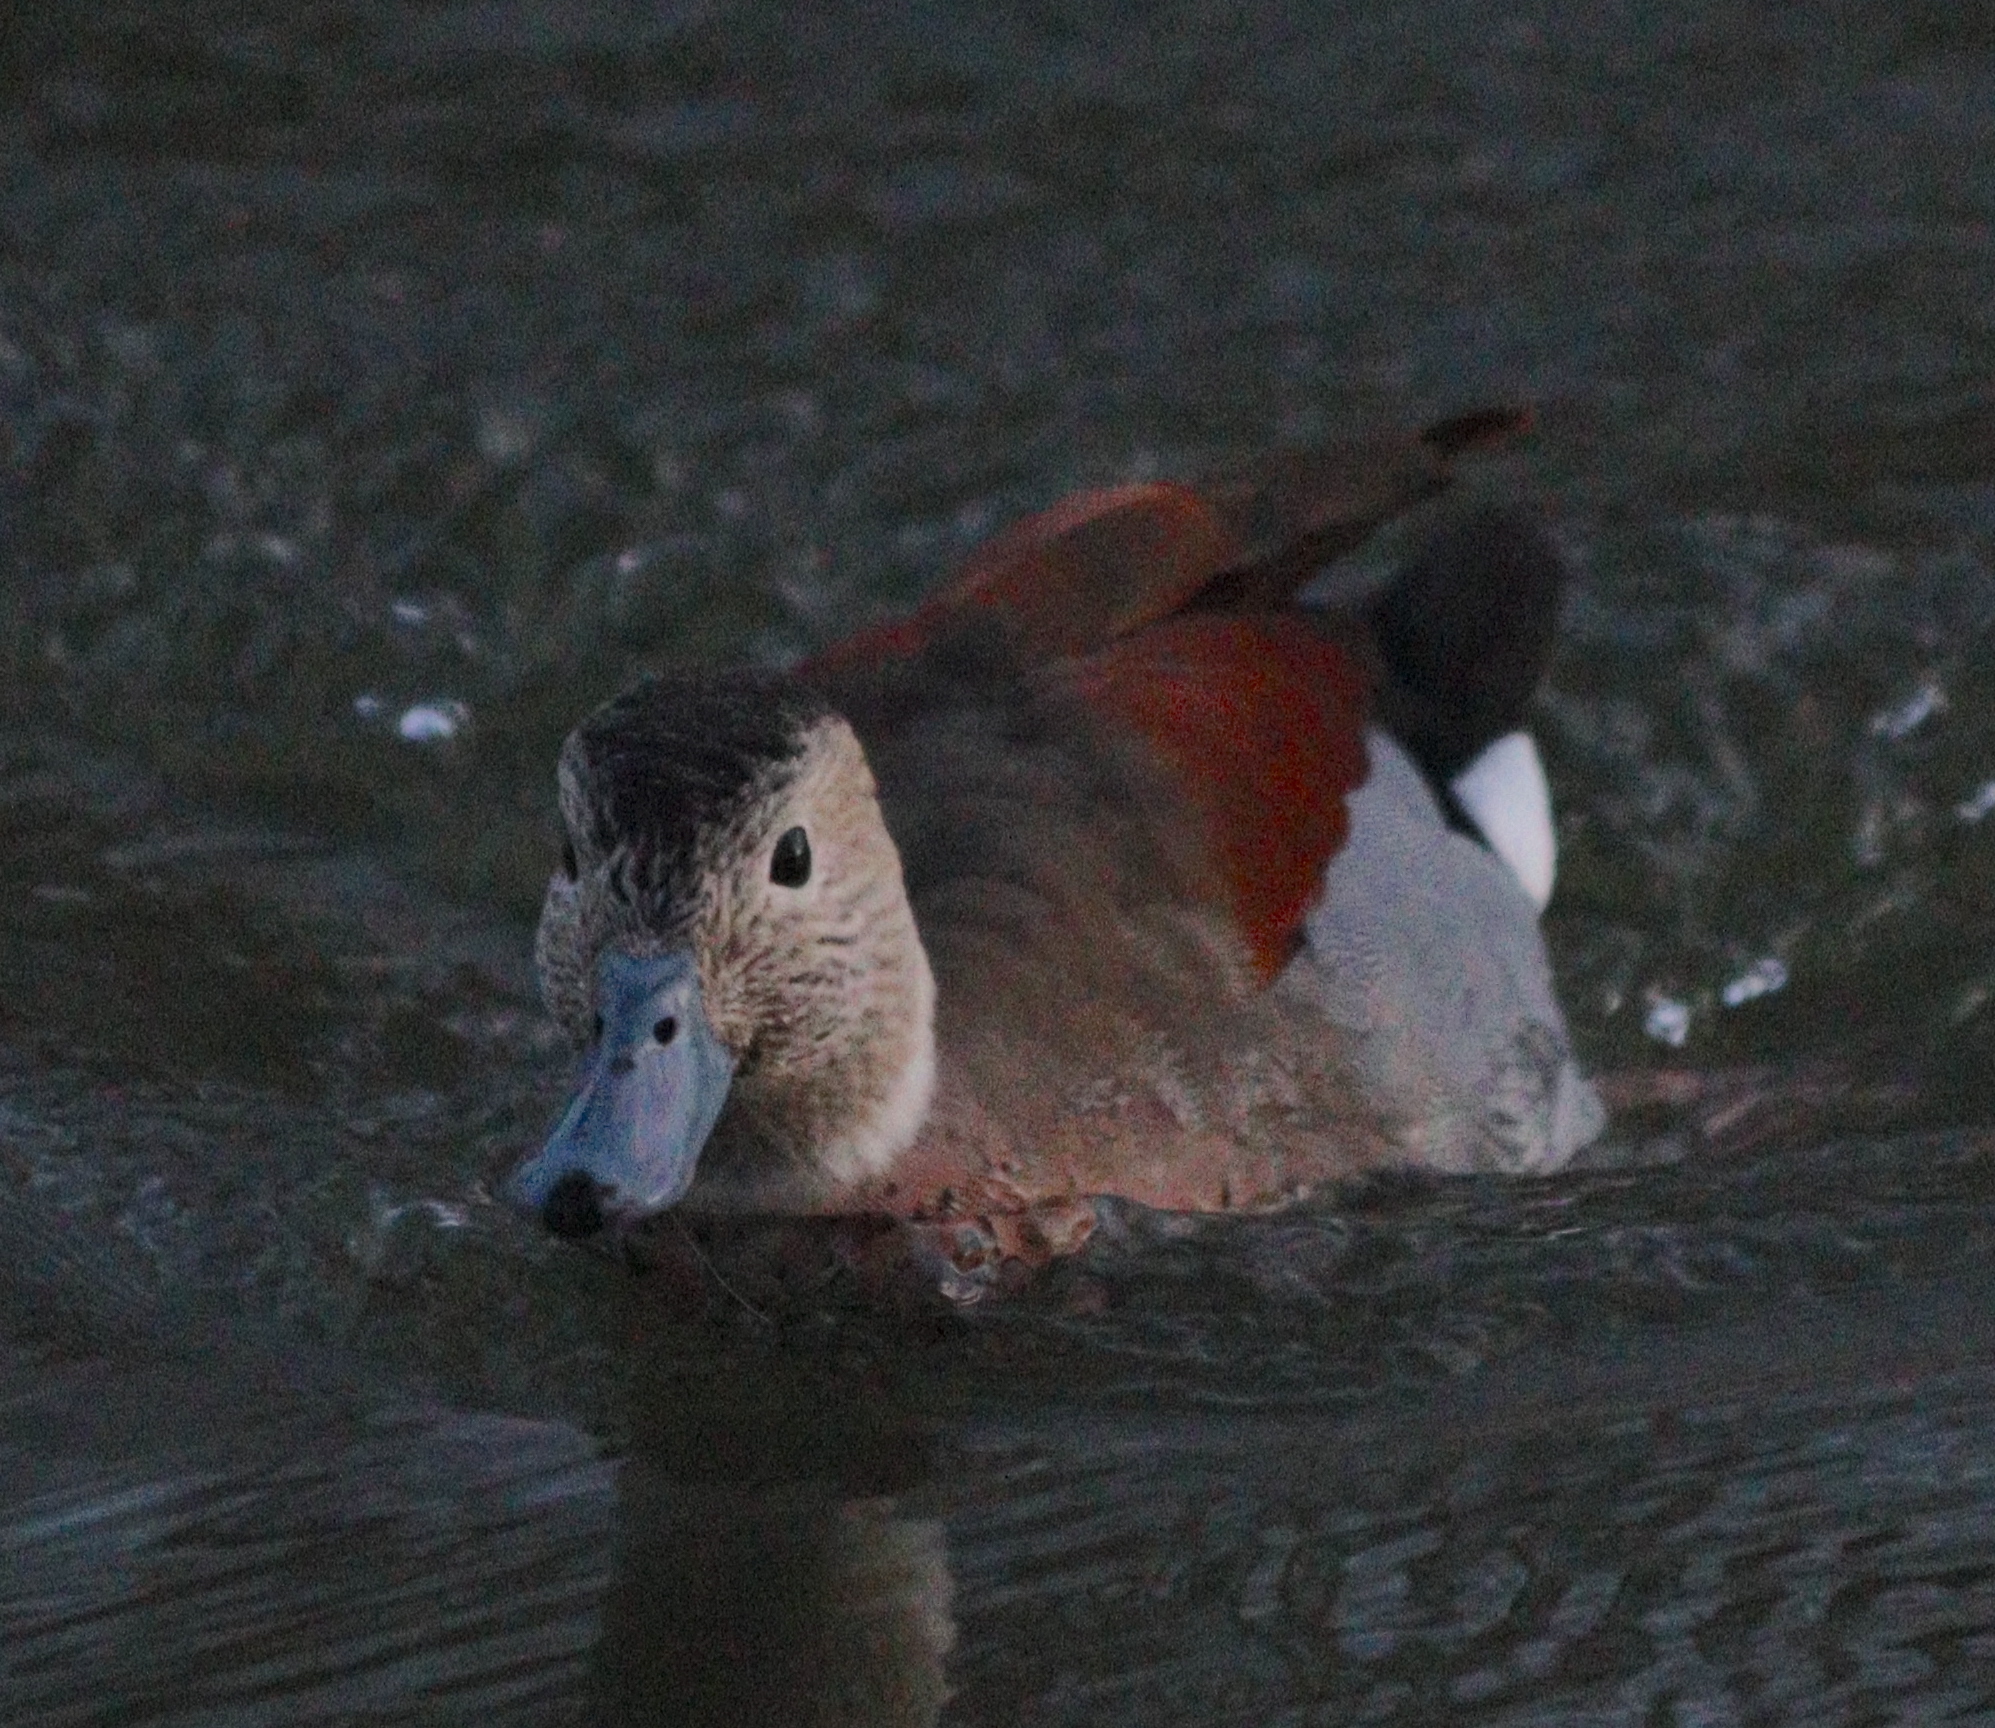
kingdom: Animalia
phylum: Chordata
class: Aves
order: Anseriformes
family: Anatidae
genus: Callonetta
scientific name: Callonetta leucophrys
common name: Ringed teal
